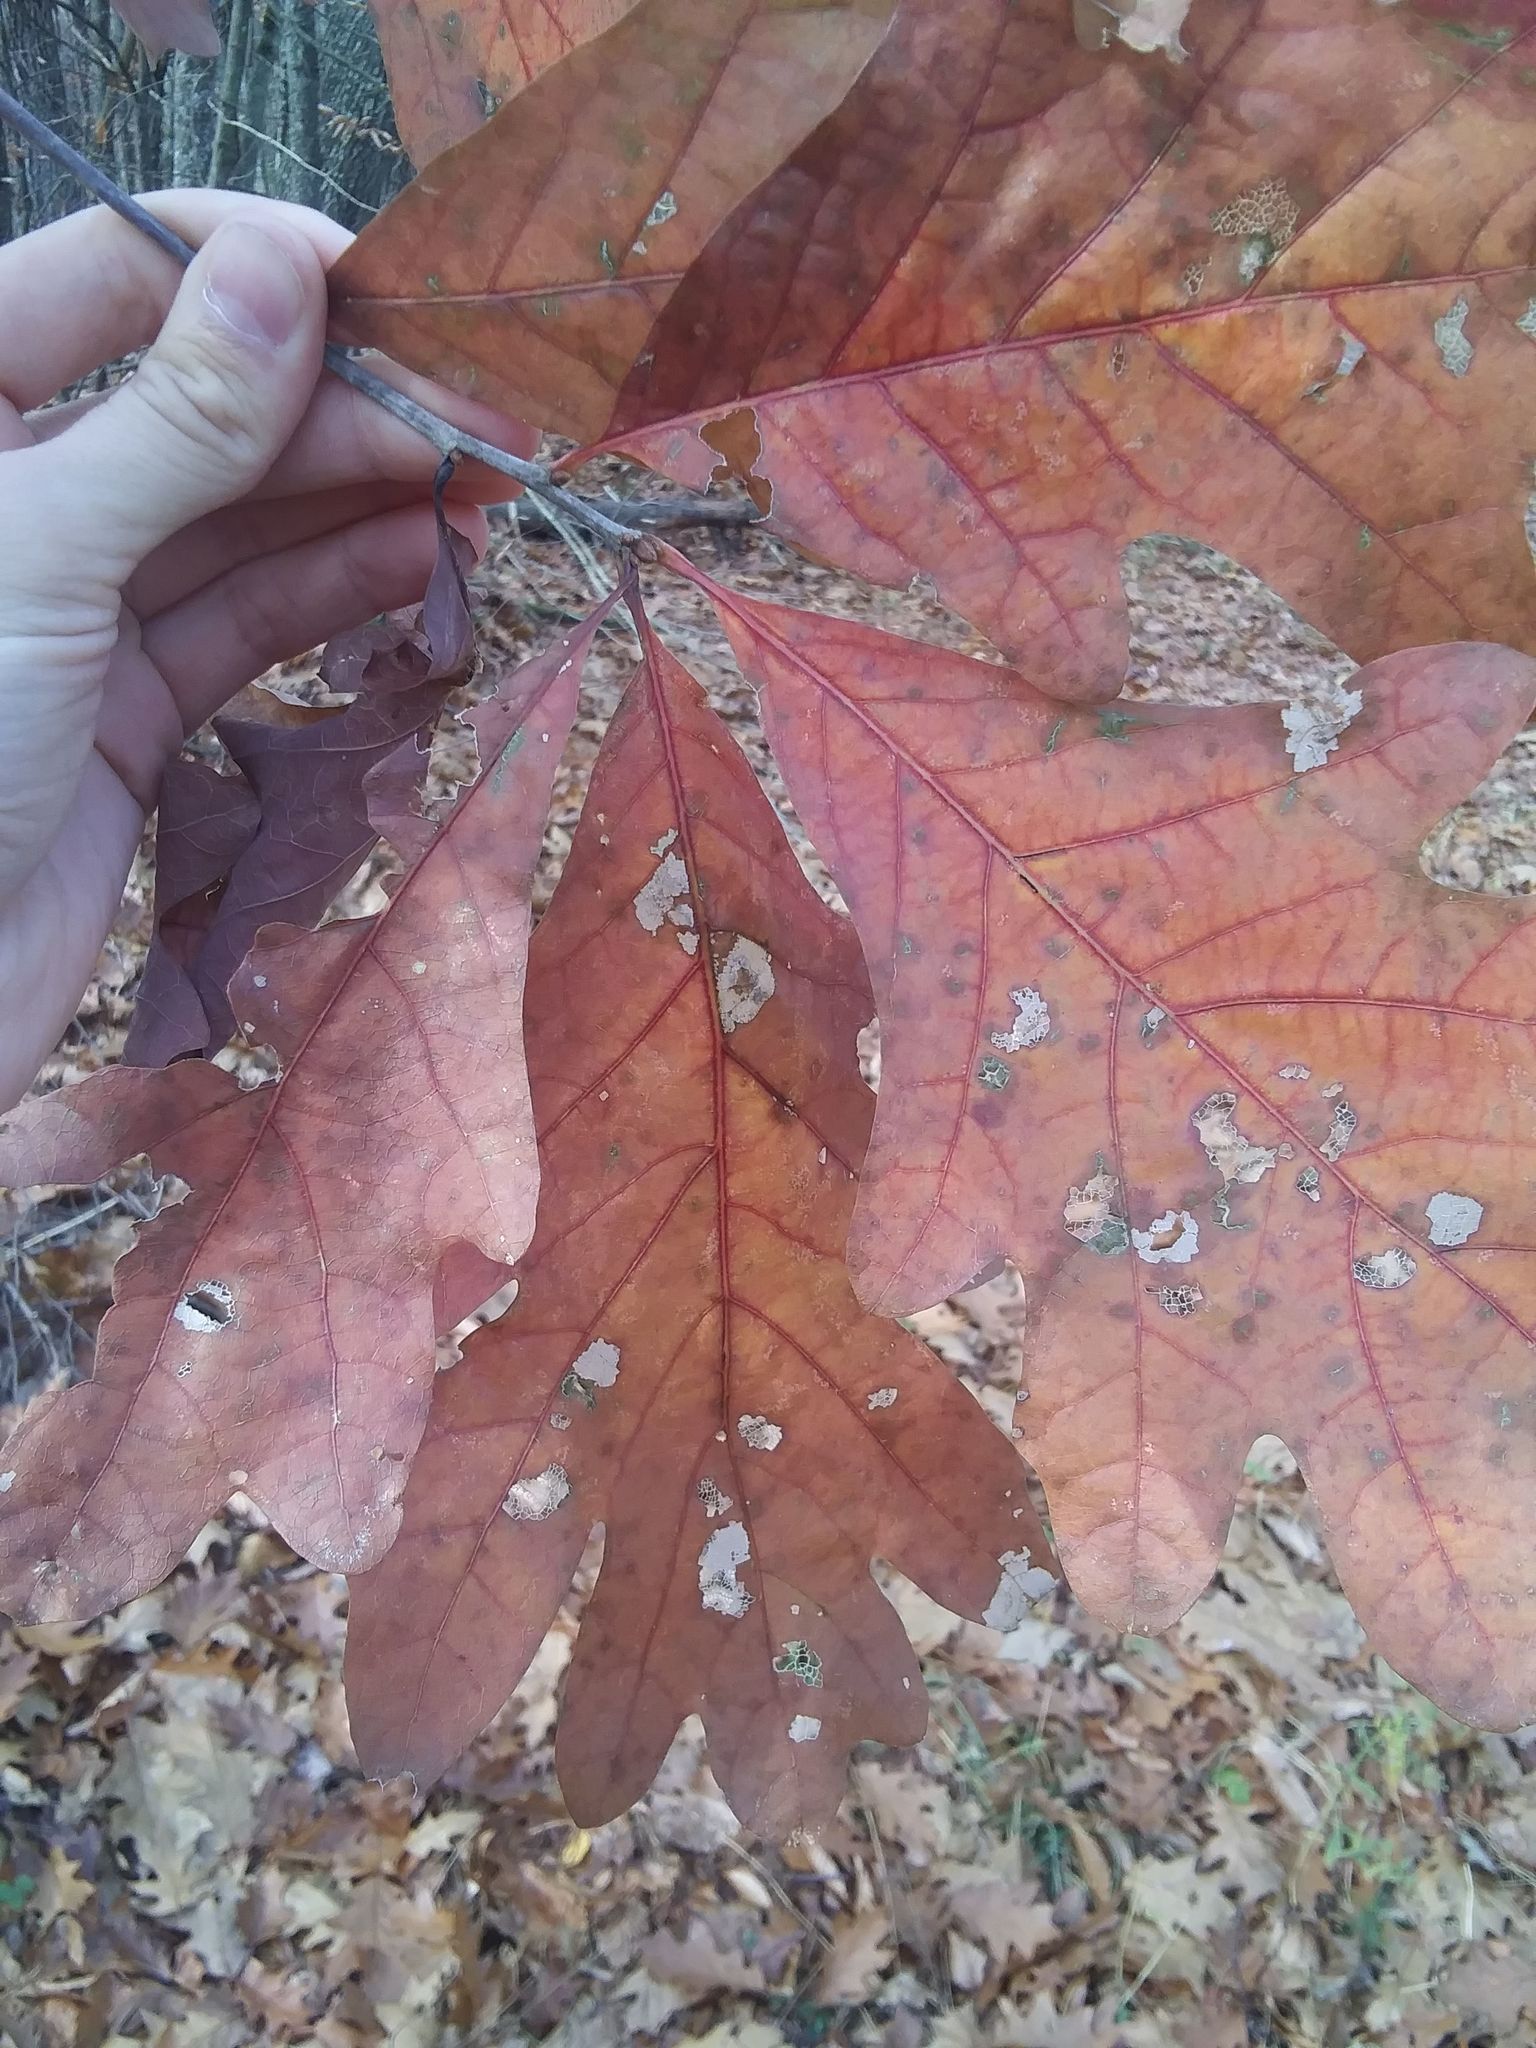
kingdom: Plantae
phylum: Tracheophyta
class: Magnoliopsida
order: Fagales
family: Fagaceae
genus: Quercus
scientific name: Quercus alba
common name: White oak
